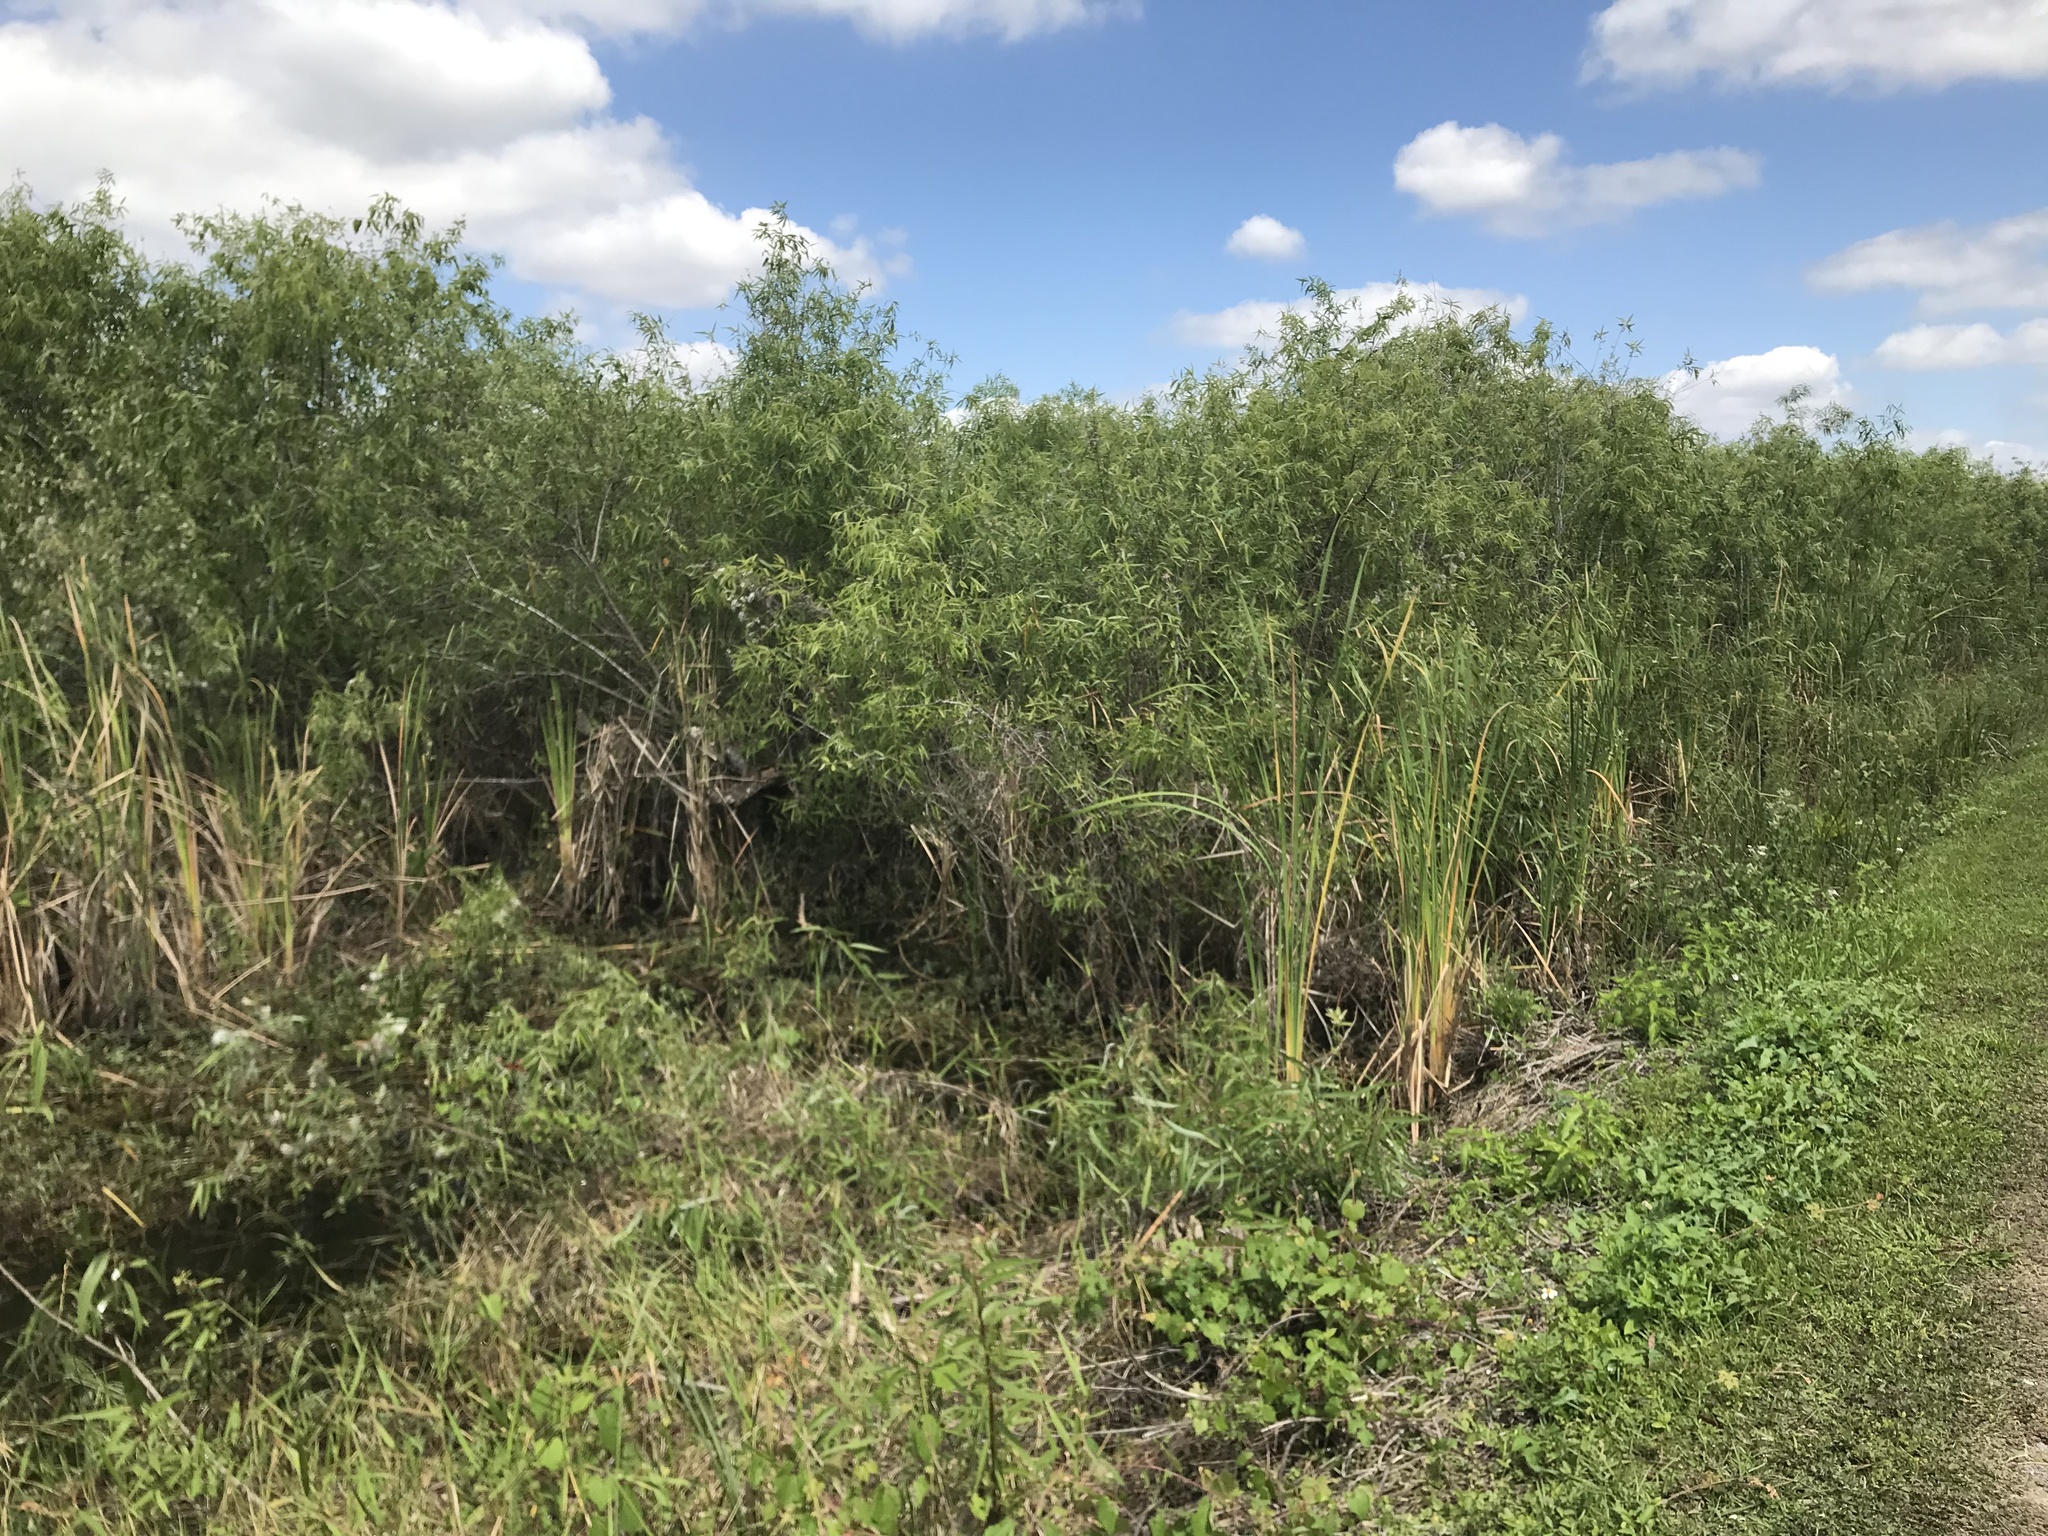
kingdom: Plantae
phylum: Tracheophyta
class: Magnoliopsida
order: Malpighiales
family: Salicaceae
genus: Salix
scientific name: Salix caroliniana
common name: Carolina willow
